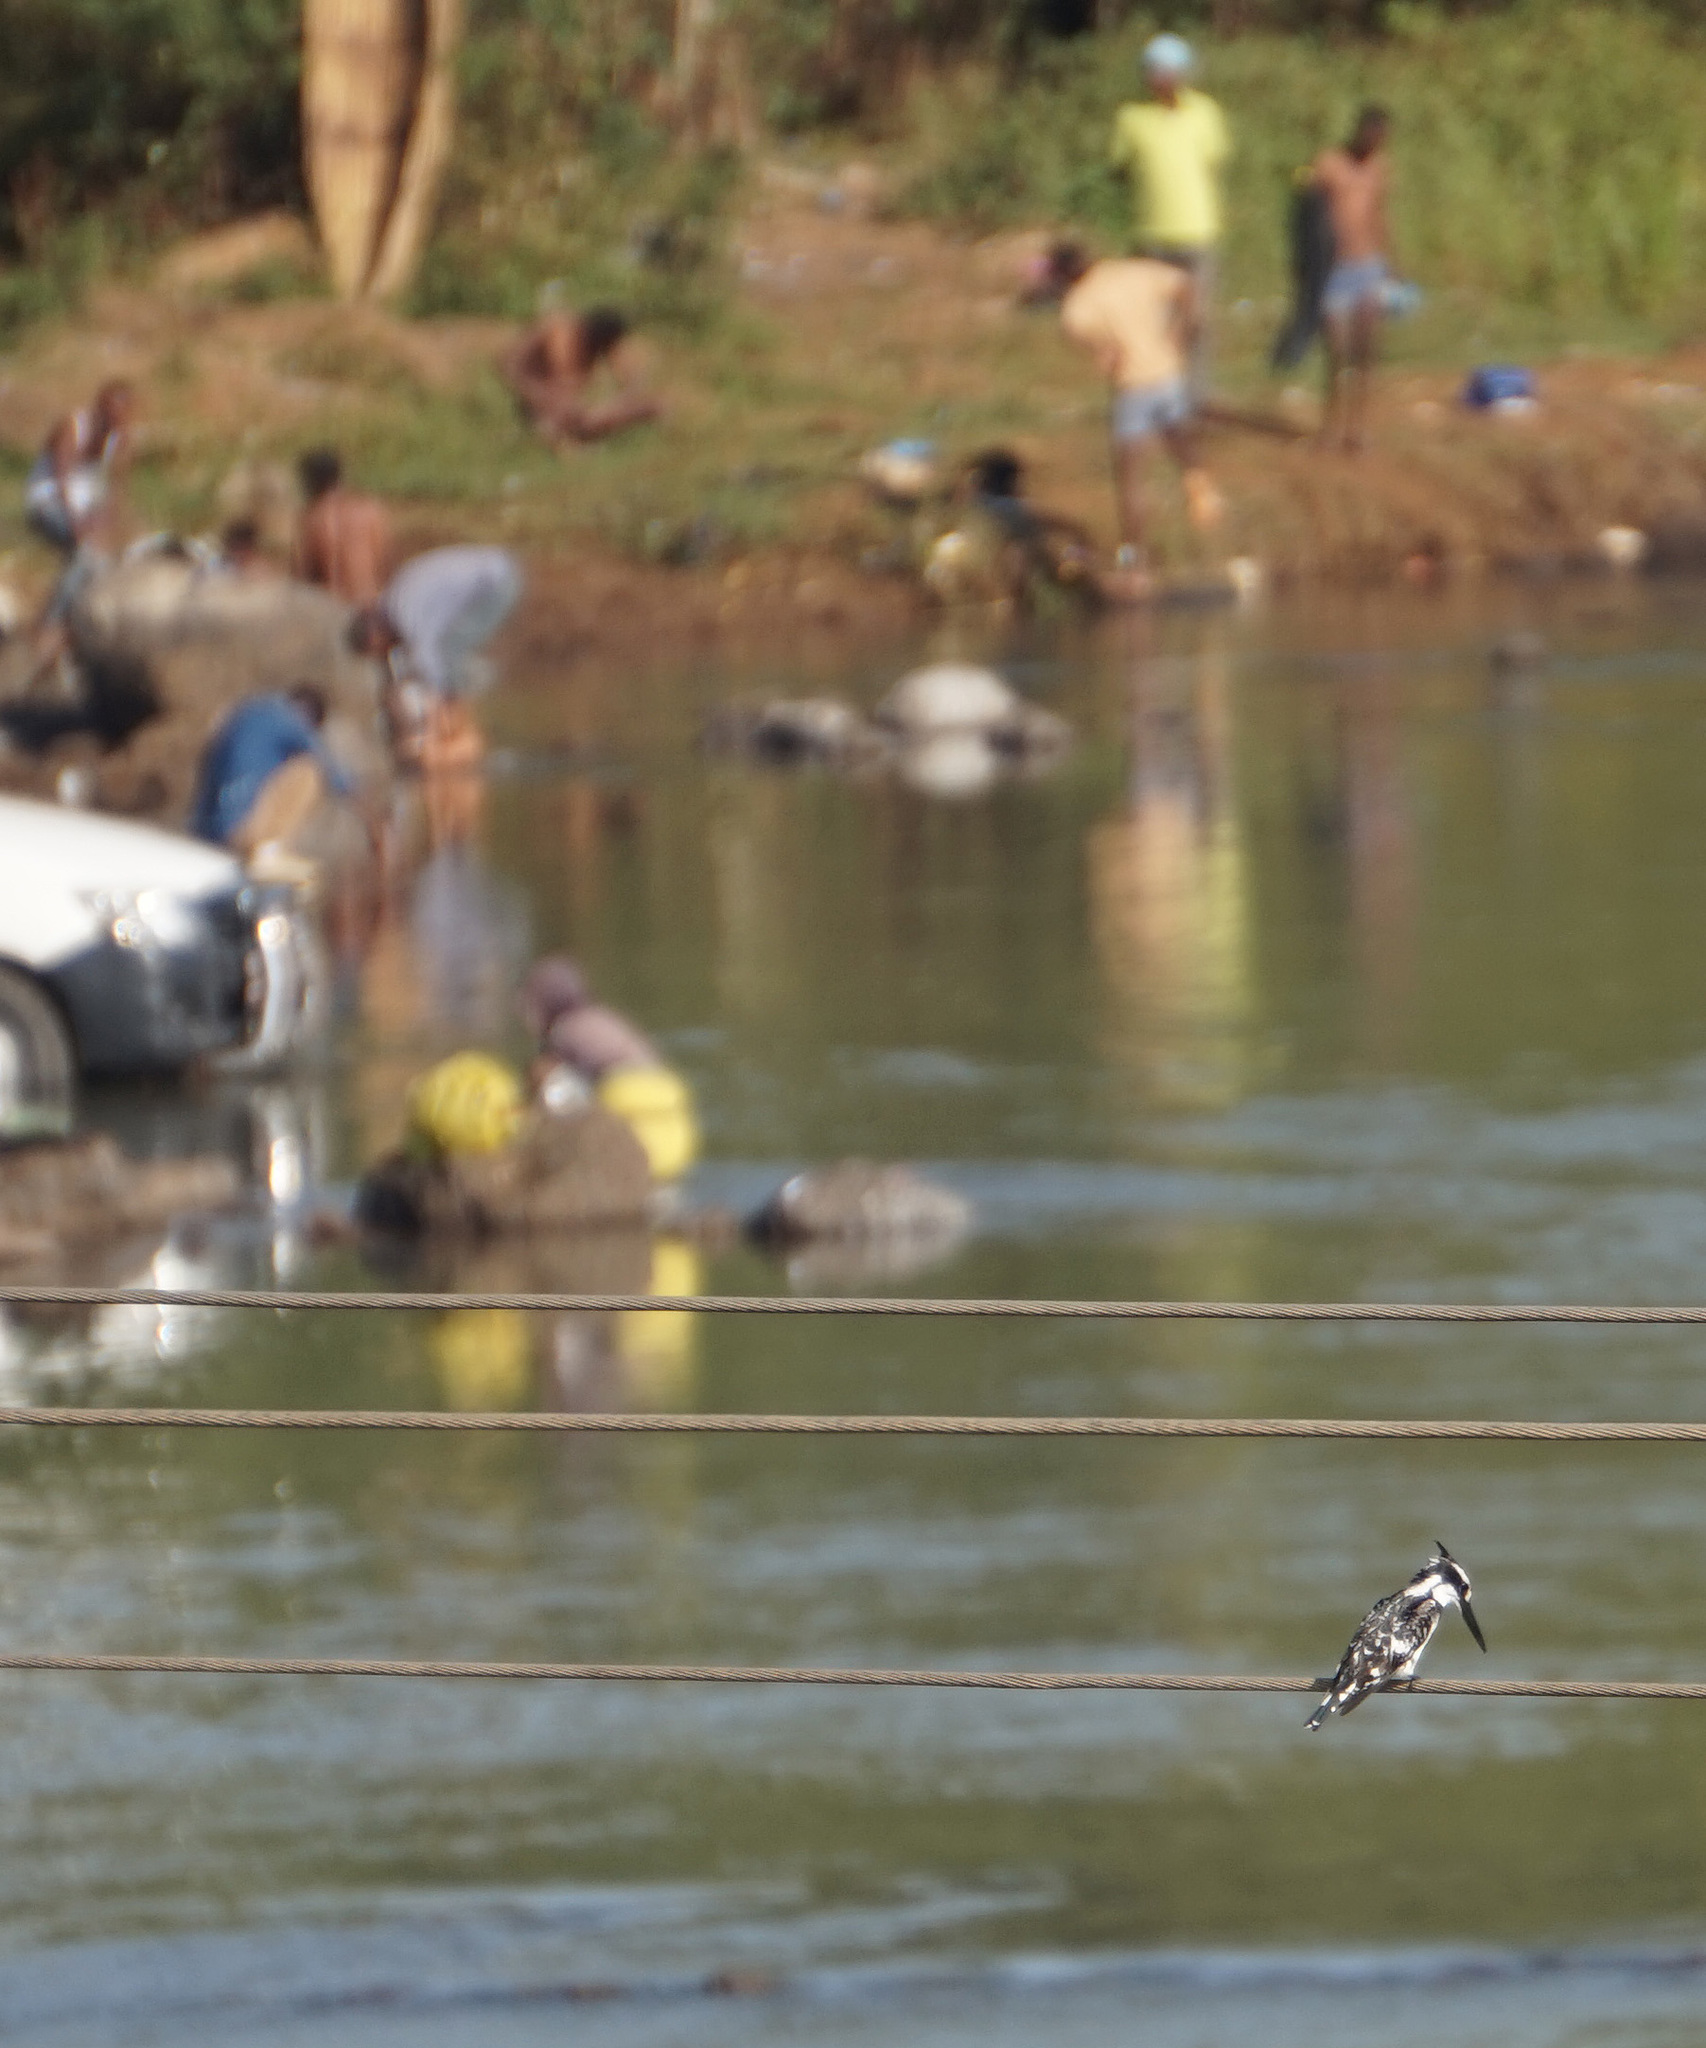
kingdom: Animalia
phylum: Chordata
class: Aves
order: Coraciiformes
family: Alcedinidae
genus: Ceryle
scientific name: Ceryle rudis
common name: Pied kingfisher
